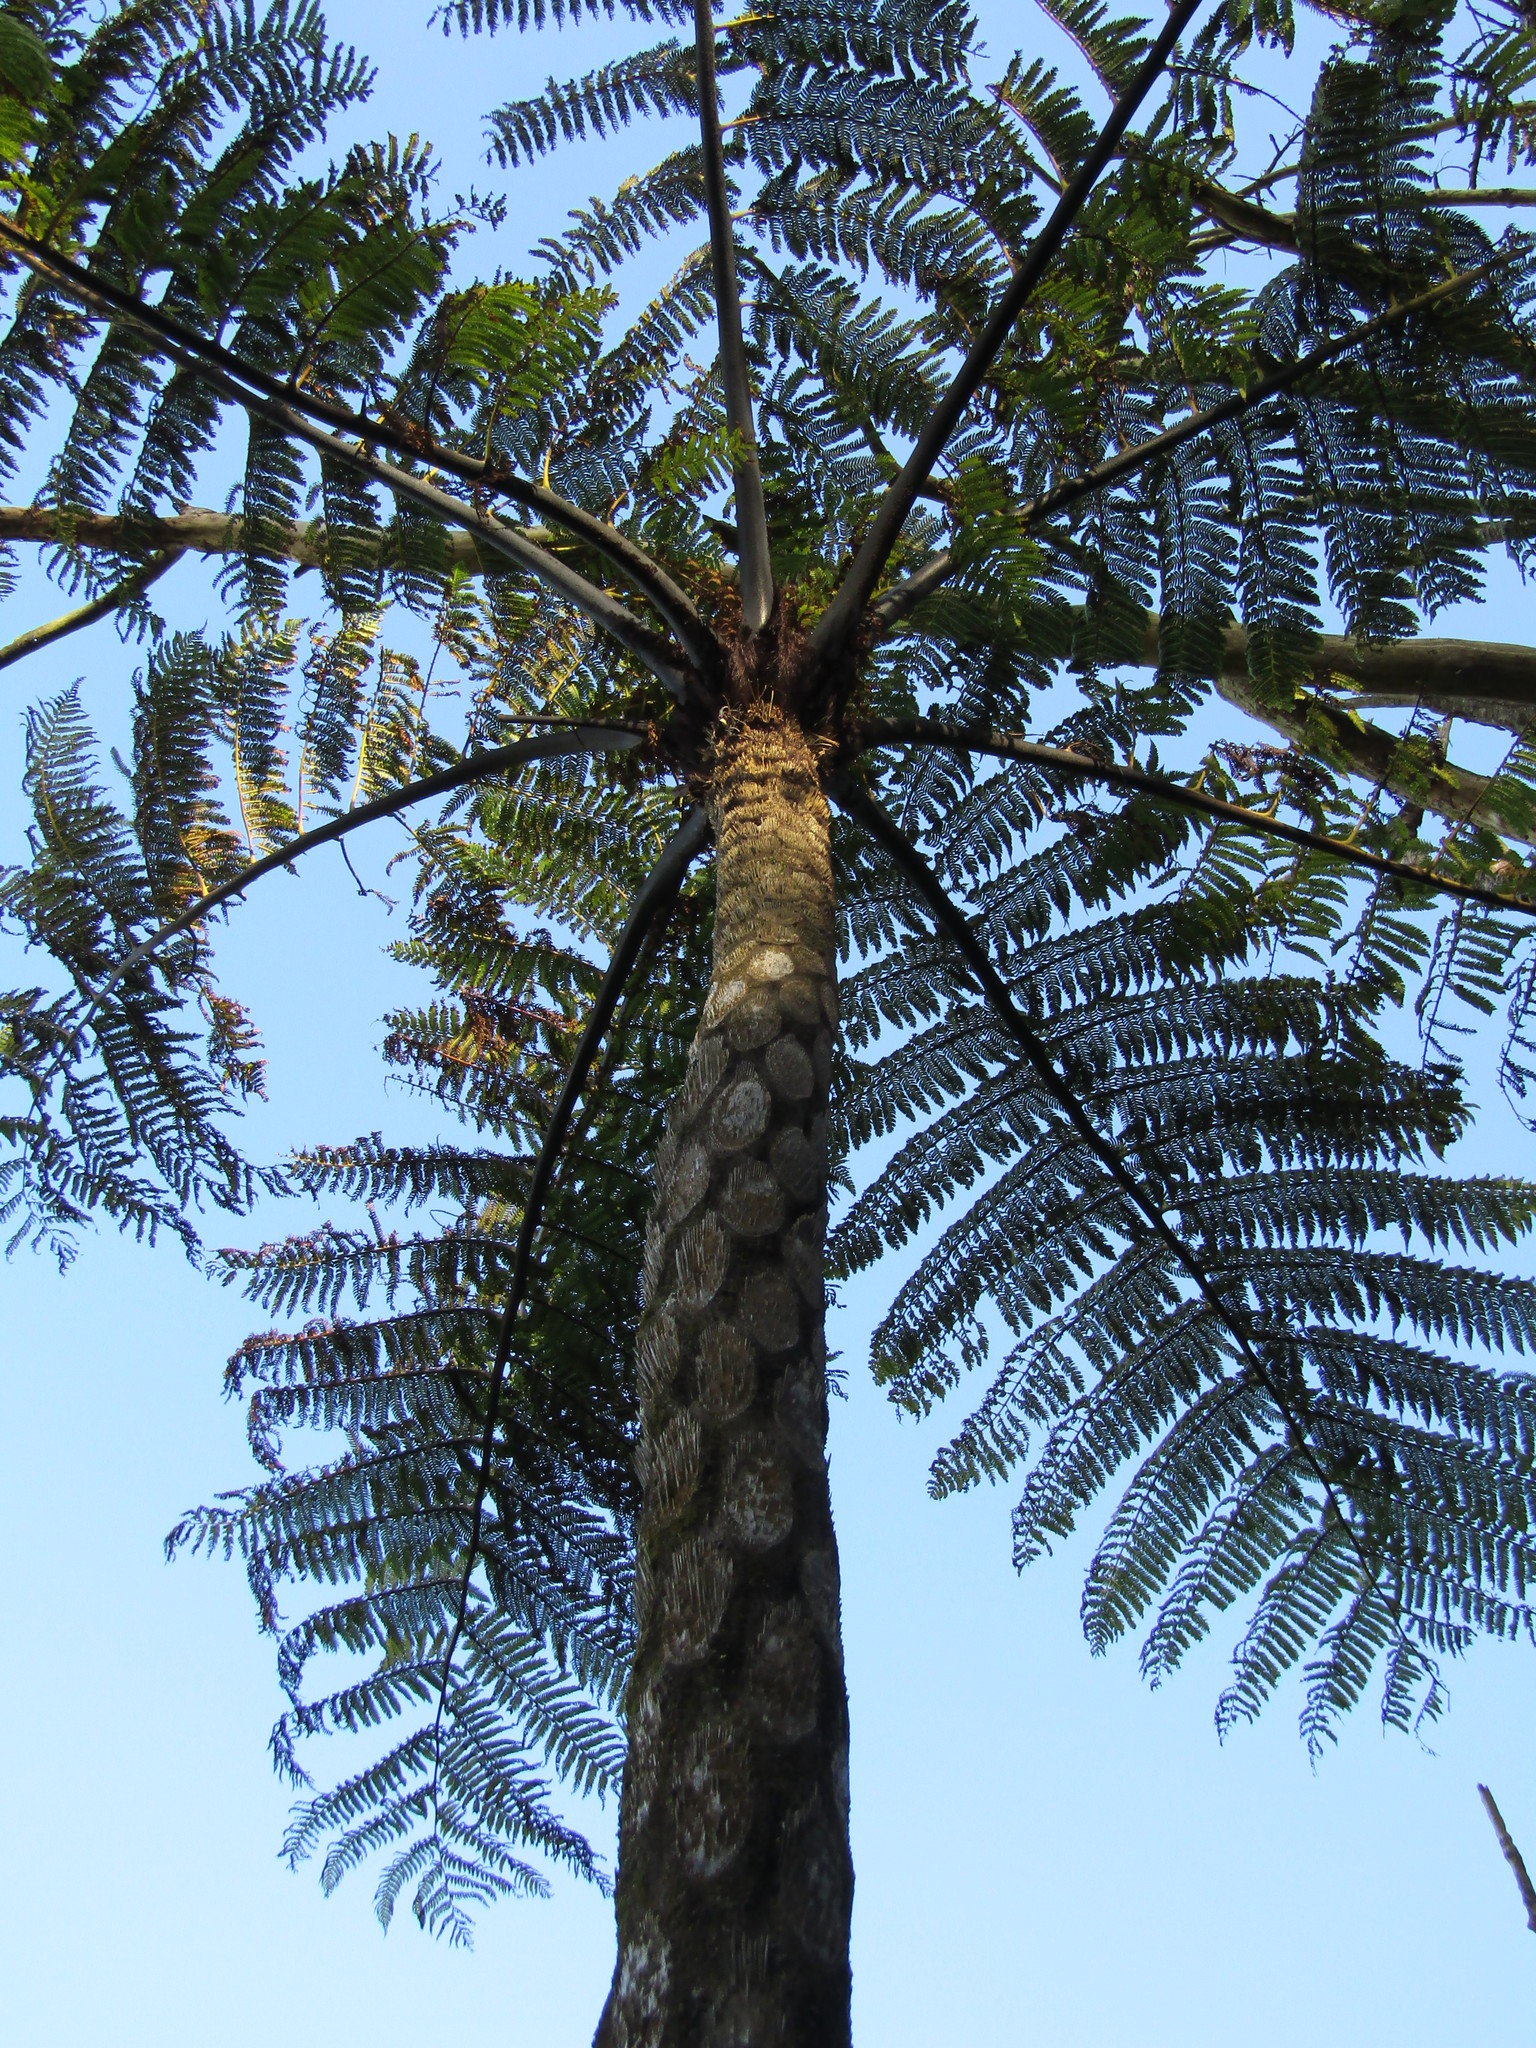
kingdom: Plantae
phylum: Tracheophyta
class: Polypodiopsida
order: Cyatheales
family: Cyatheaceae
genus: Sphaeropteris
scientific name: Sphaeropteris medullaris
